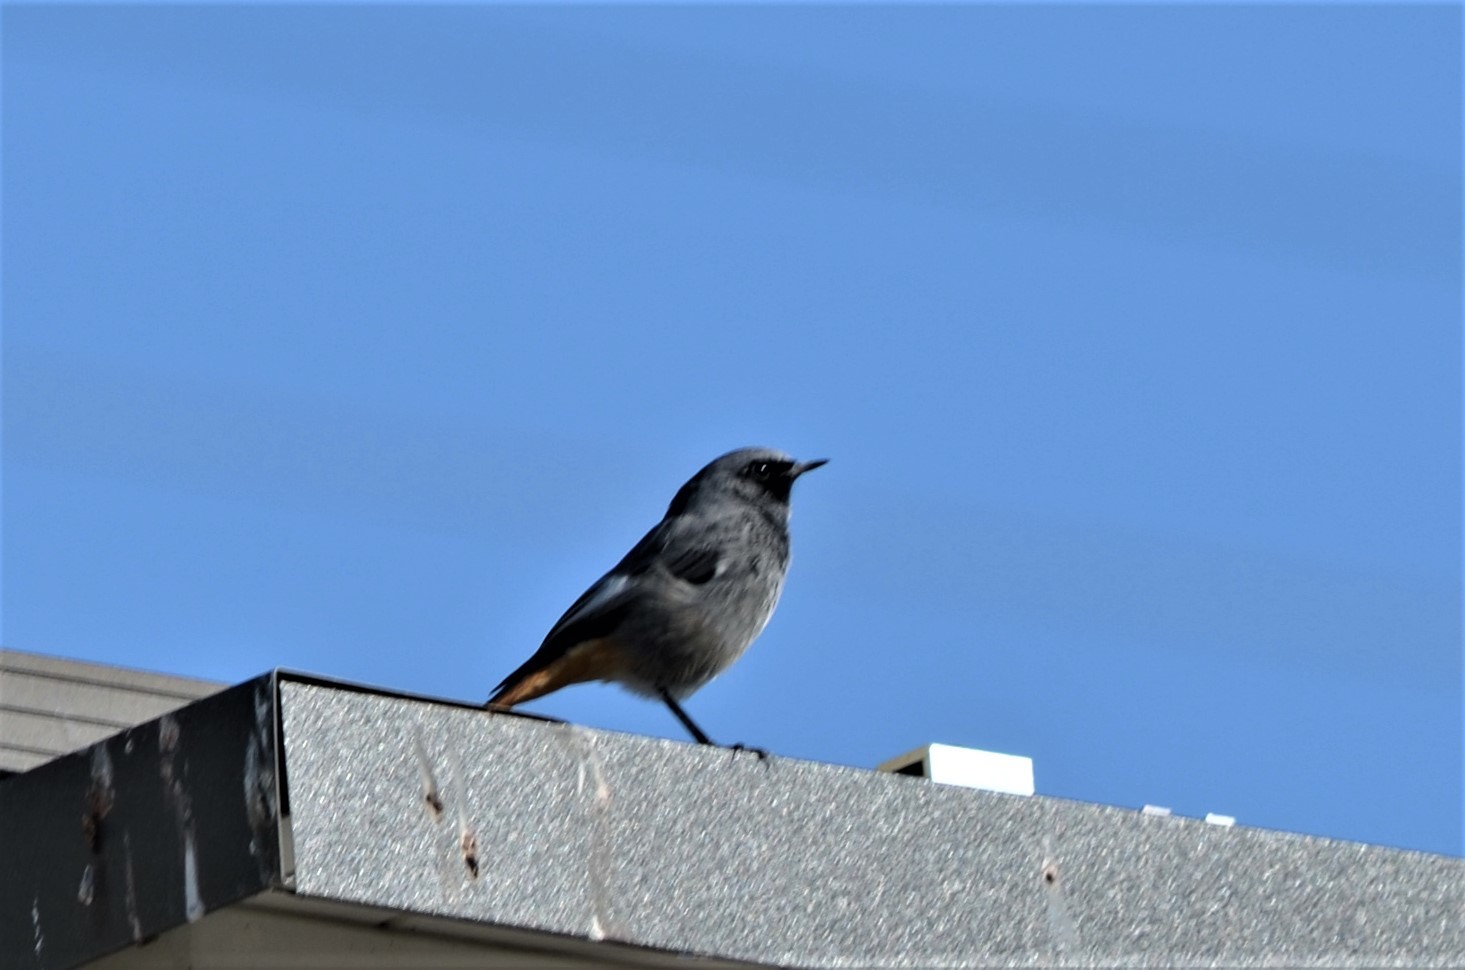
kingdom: Animalia
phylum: Chordata
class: Aves
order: Passeriformes
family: Muscicapidae
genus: Phoenicurus
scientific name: Phoenicurus ochruros
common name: Black redstart
